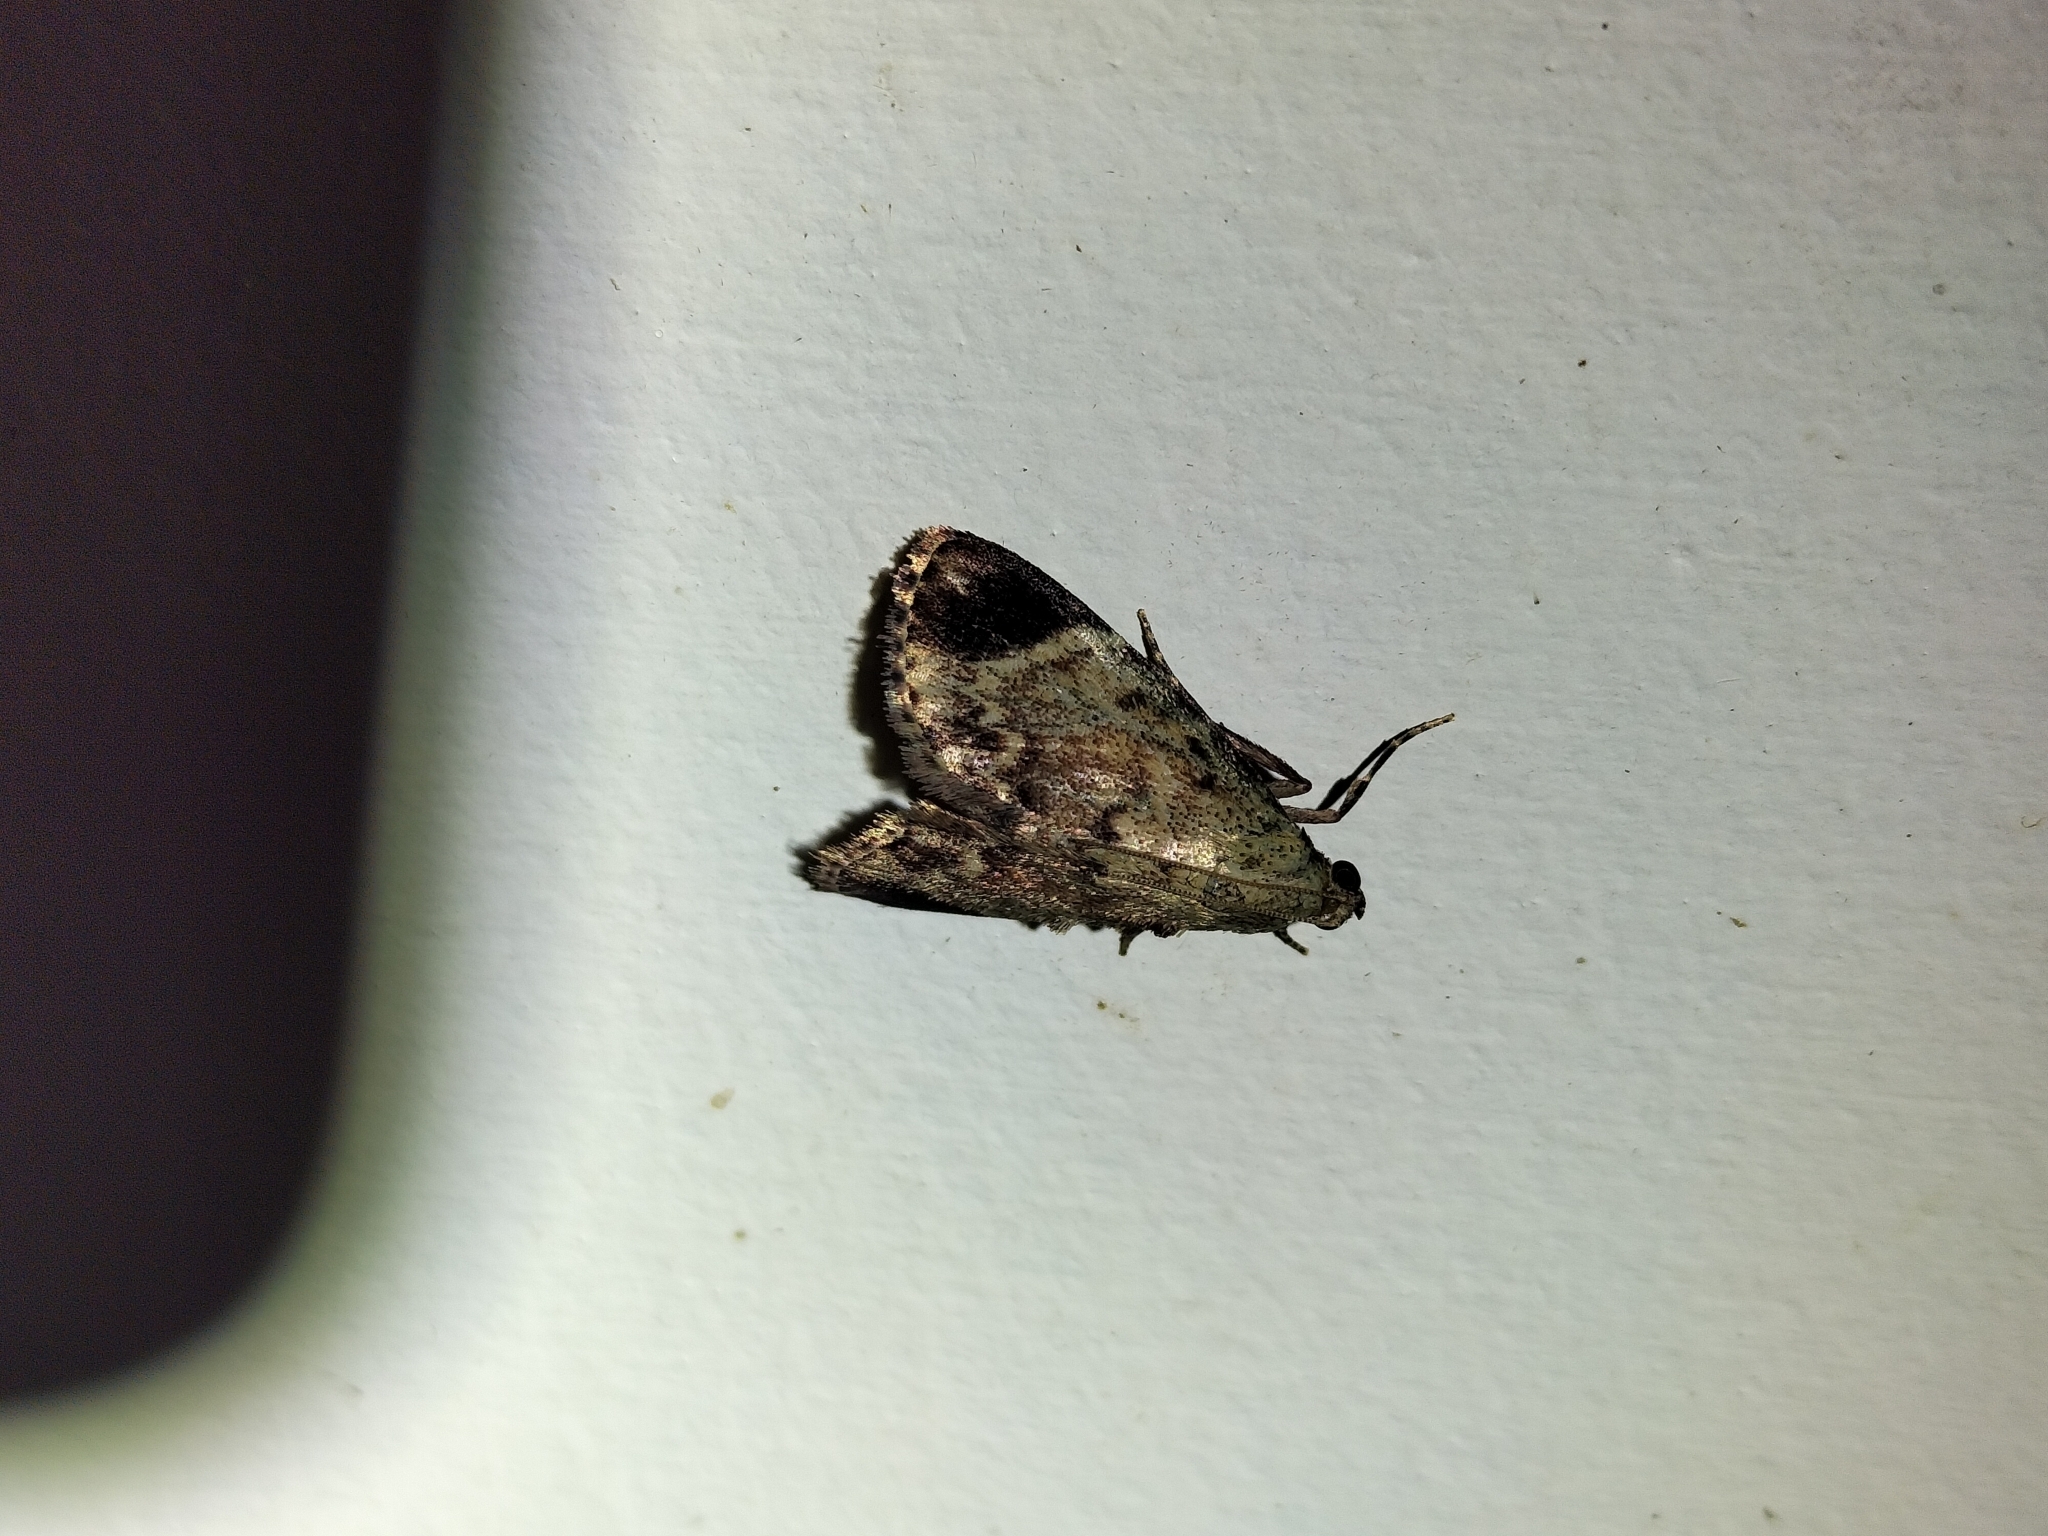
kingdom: Animalia
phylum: Arthropoda
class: Insecta
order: Lepidoptera
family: Pyralidae
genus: Orthaga
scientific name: Orthaga phaeopteralis
